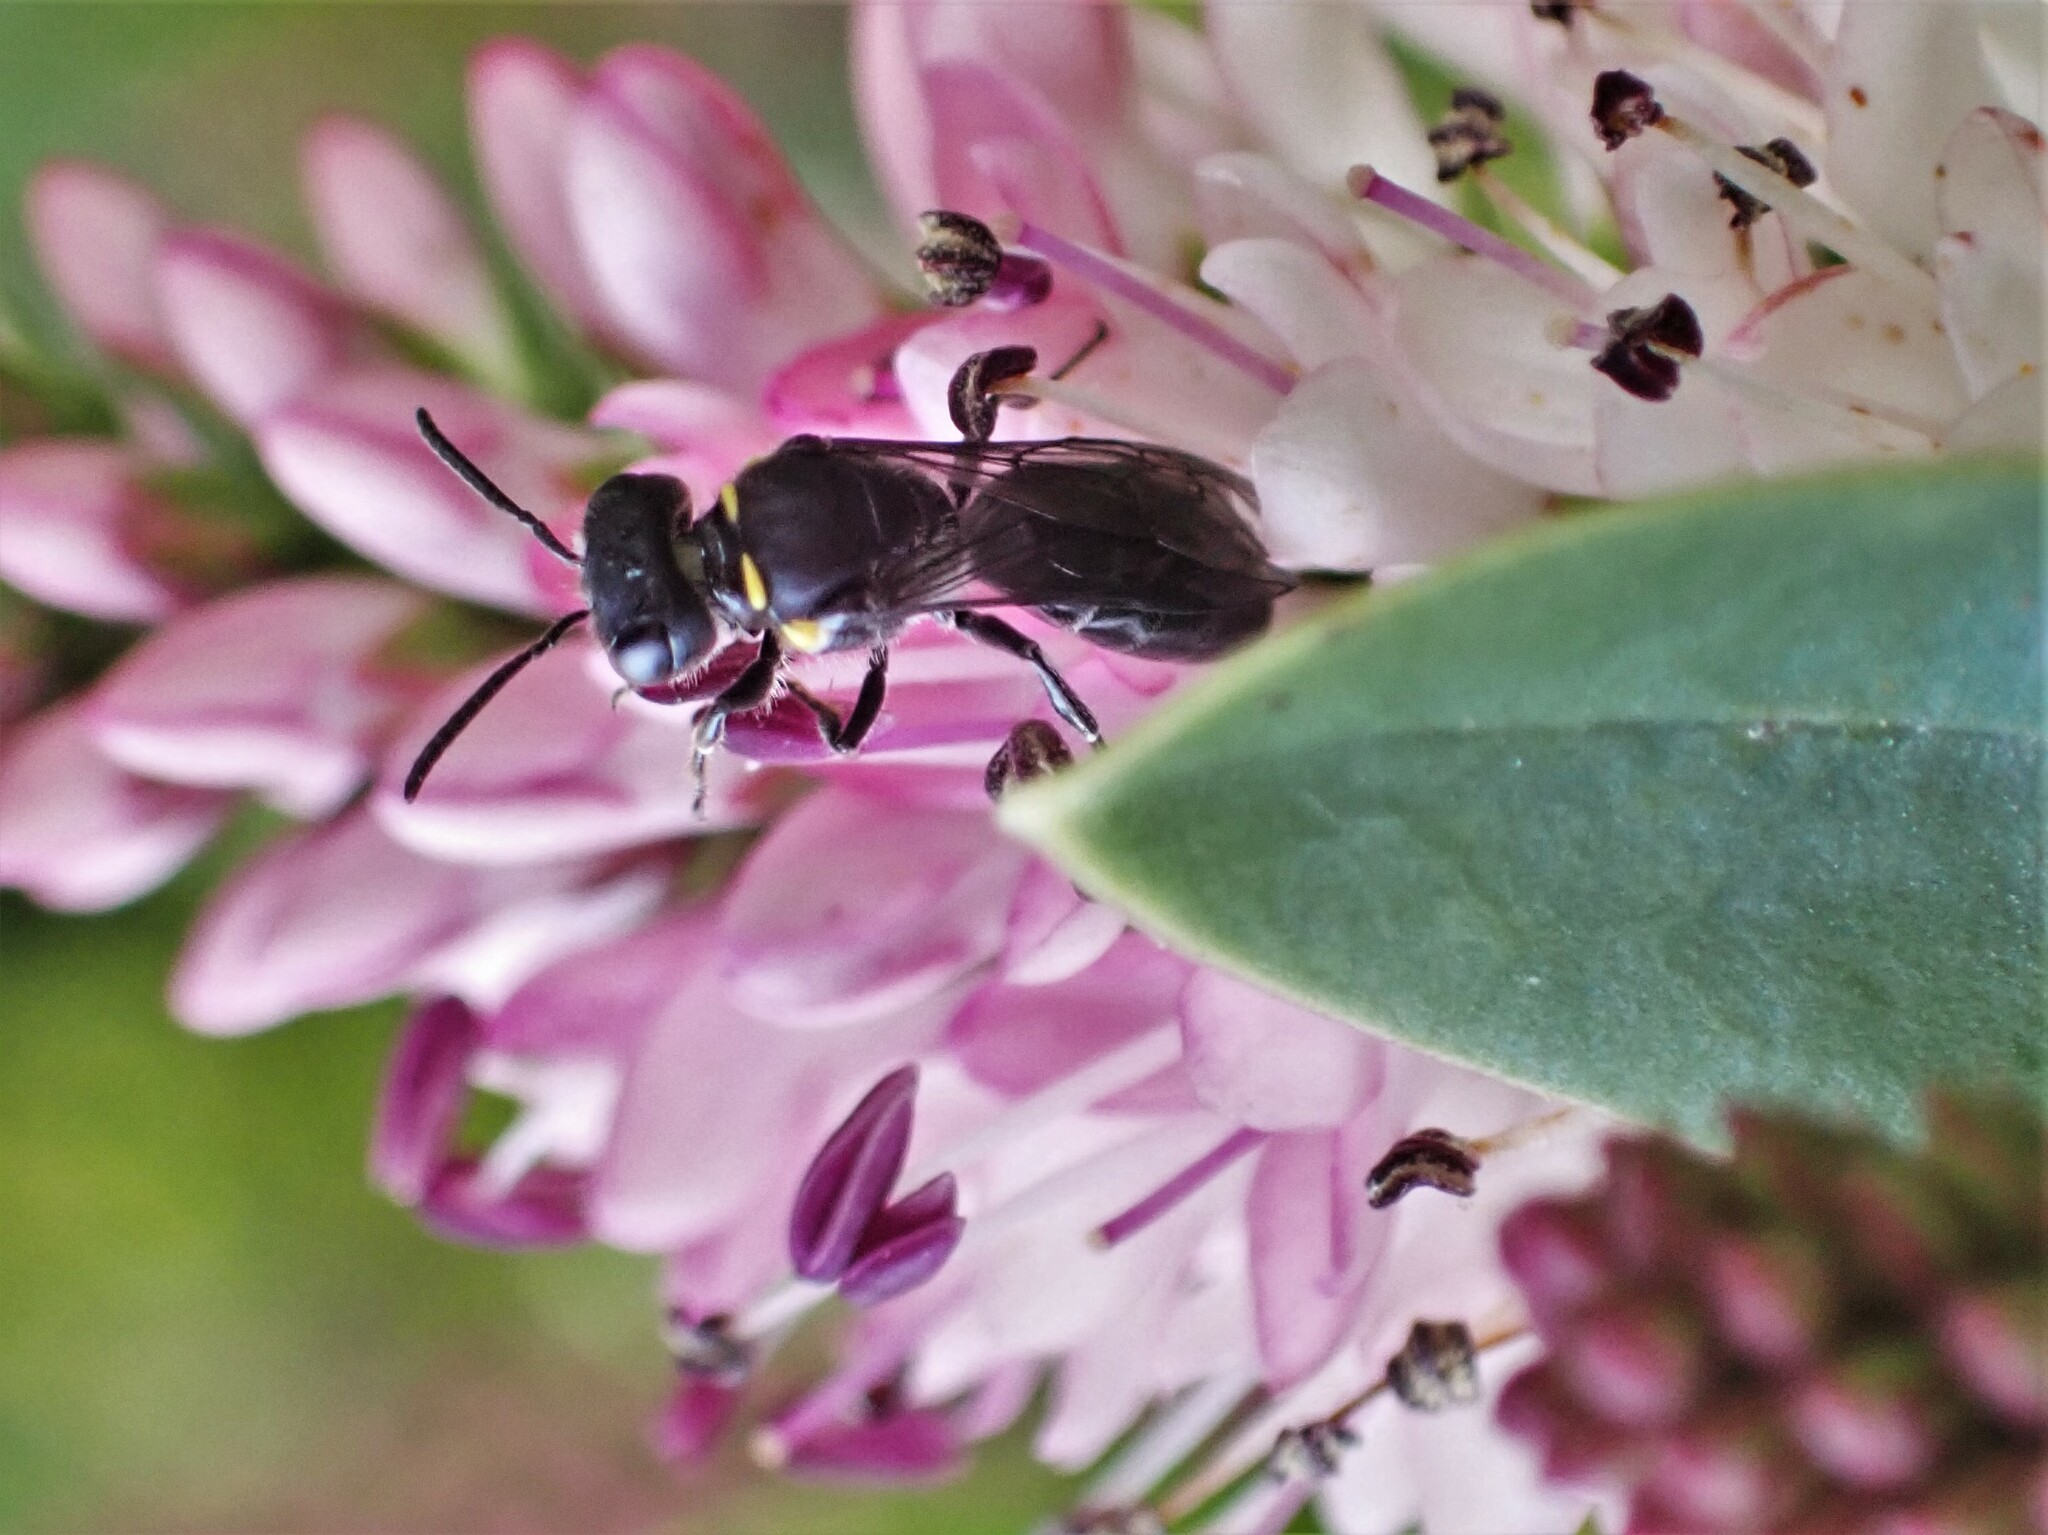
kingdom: Animalia
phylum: Arthropoda
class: Insecta
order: Hymenoptera
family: Colletidae
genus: Hylaeus
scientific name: Hylaeus relegatus
